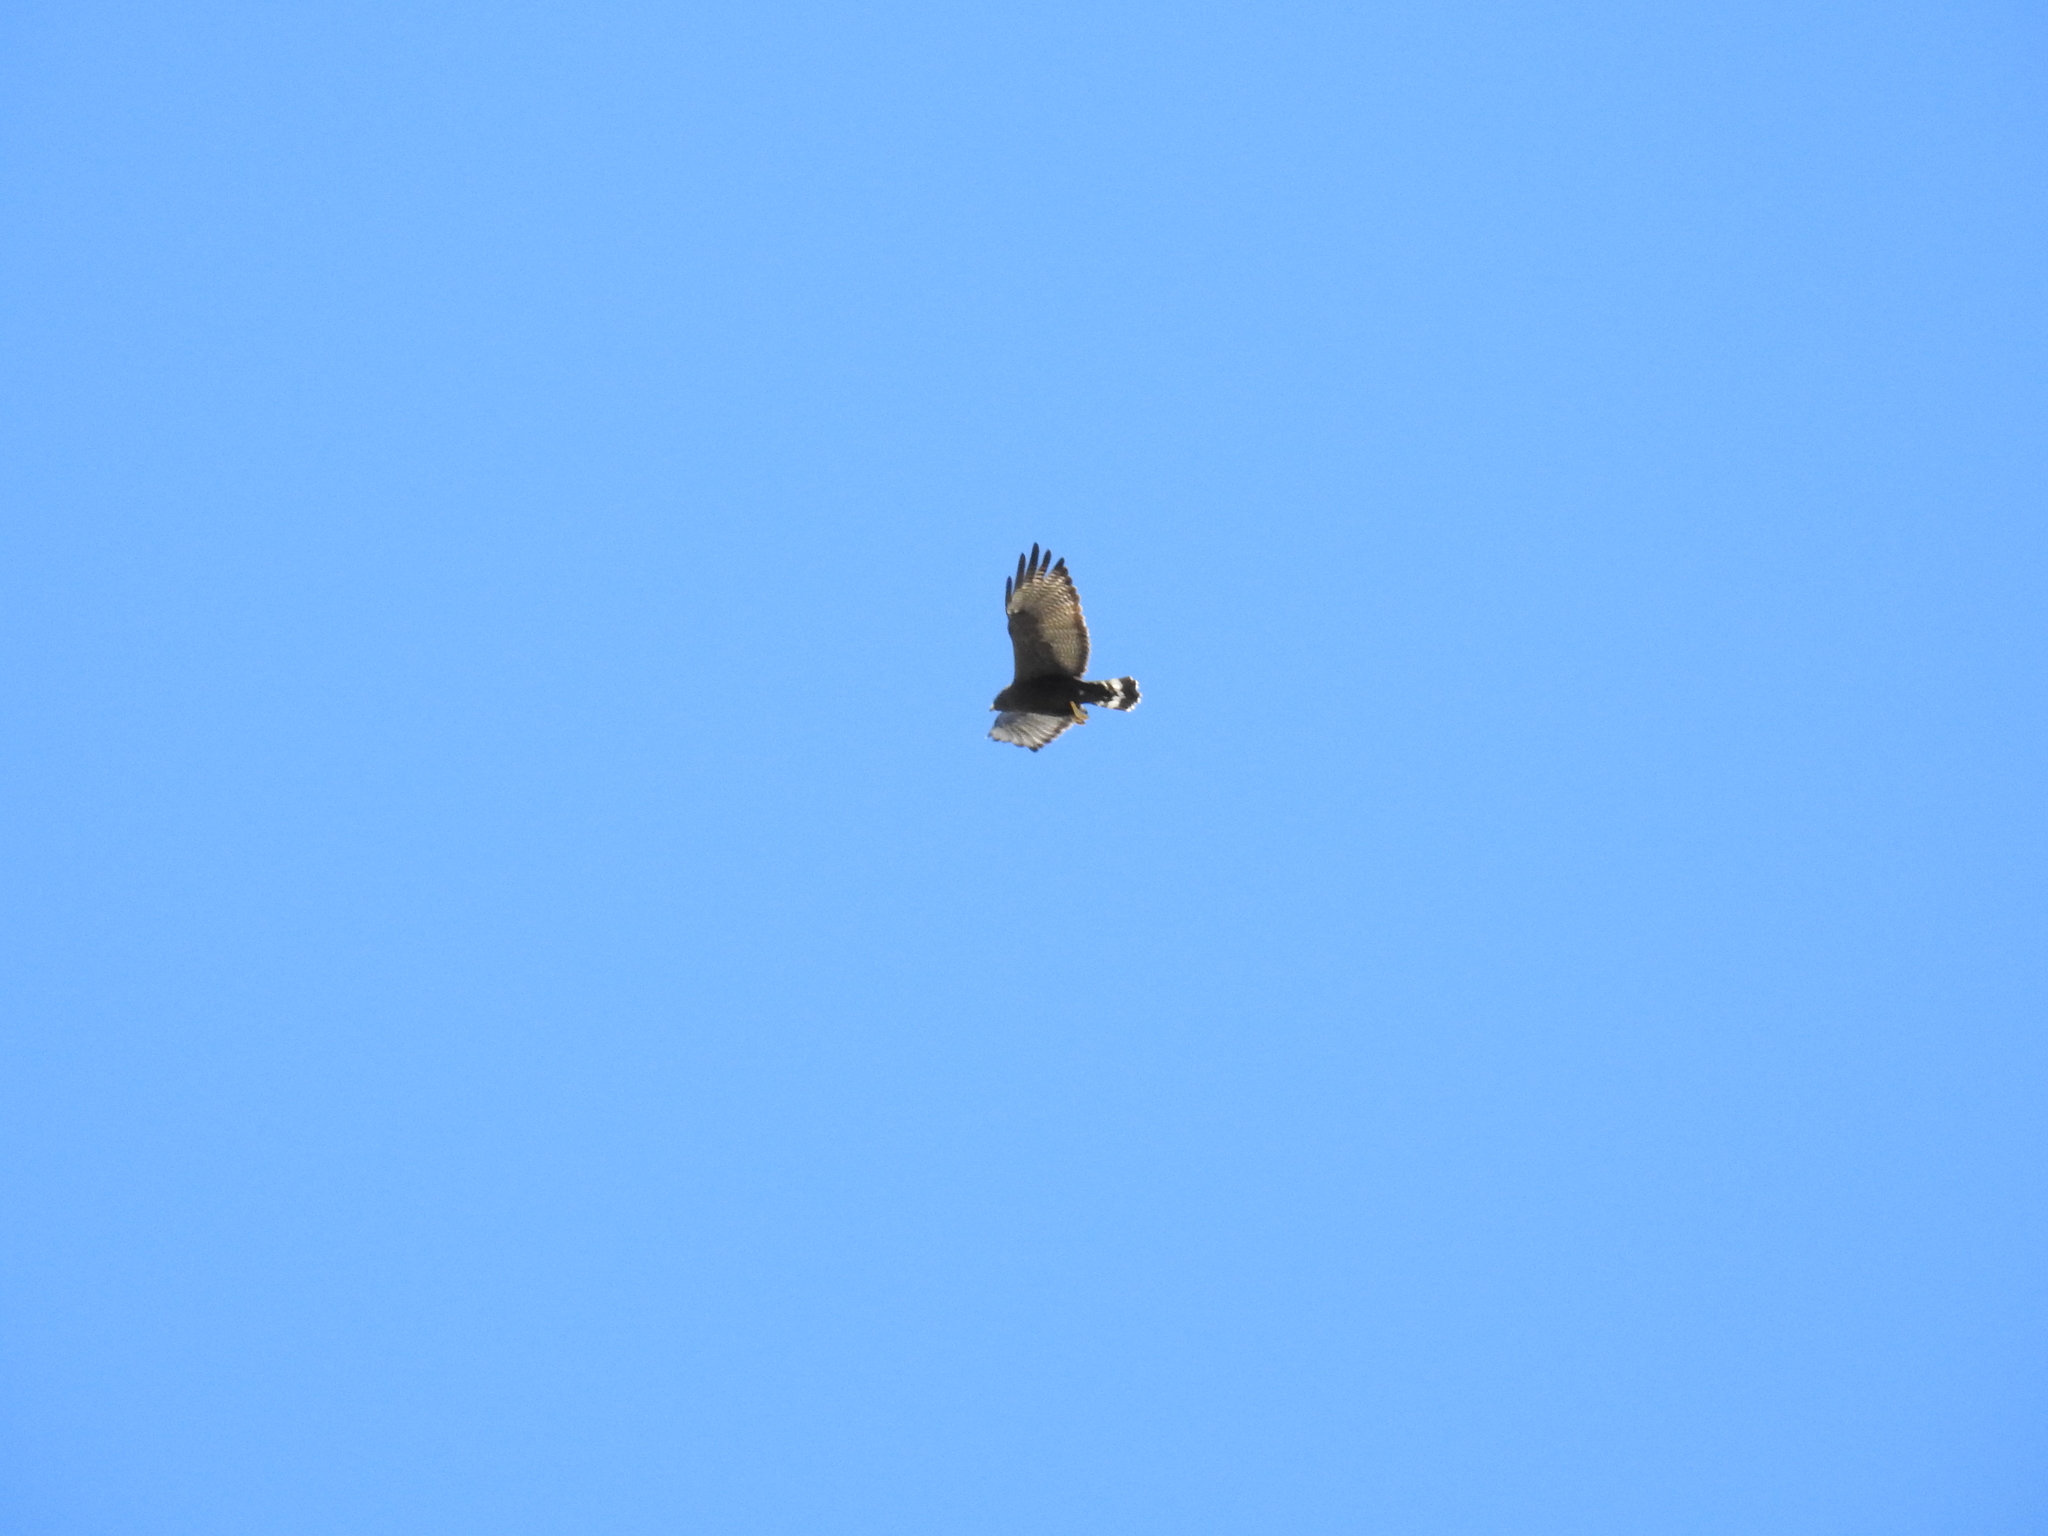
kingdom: Animalia
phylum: Chordata
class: Aves
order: Accipitriformes
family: Accipitridae
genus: Buteo
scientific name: Buteo albonotatus
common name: Zone-tailed hawk
